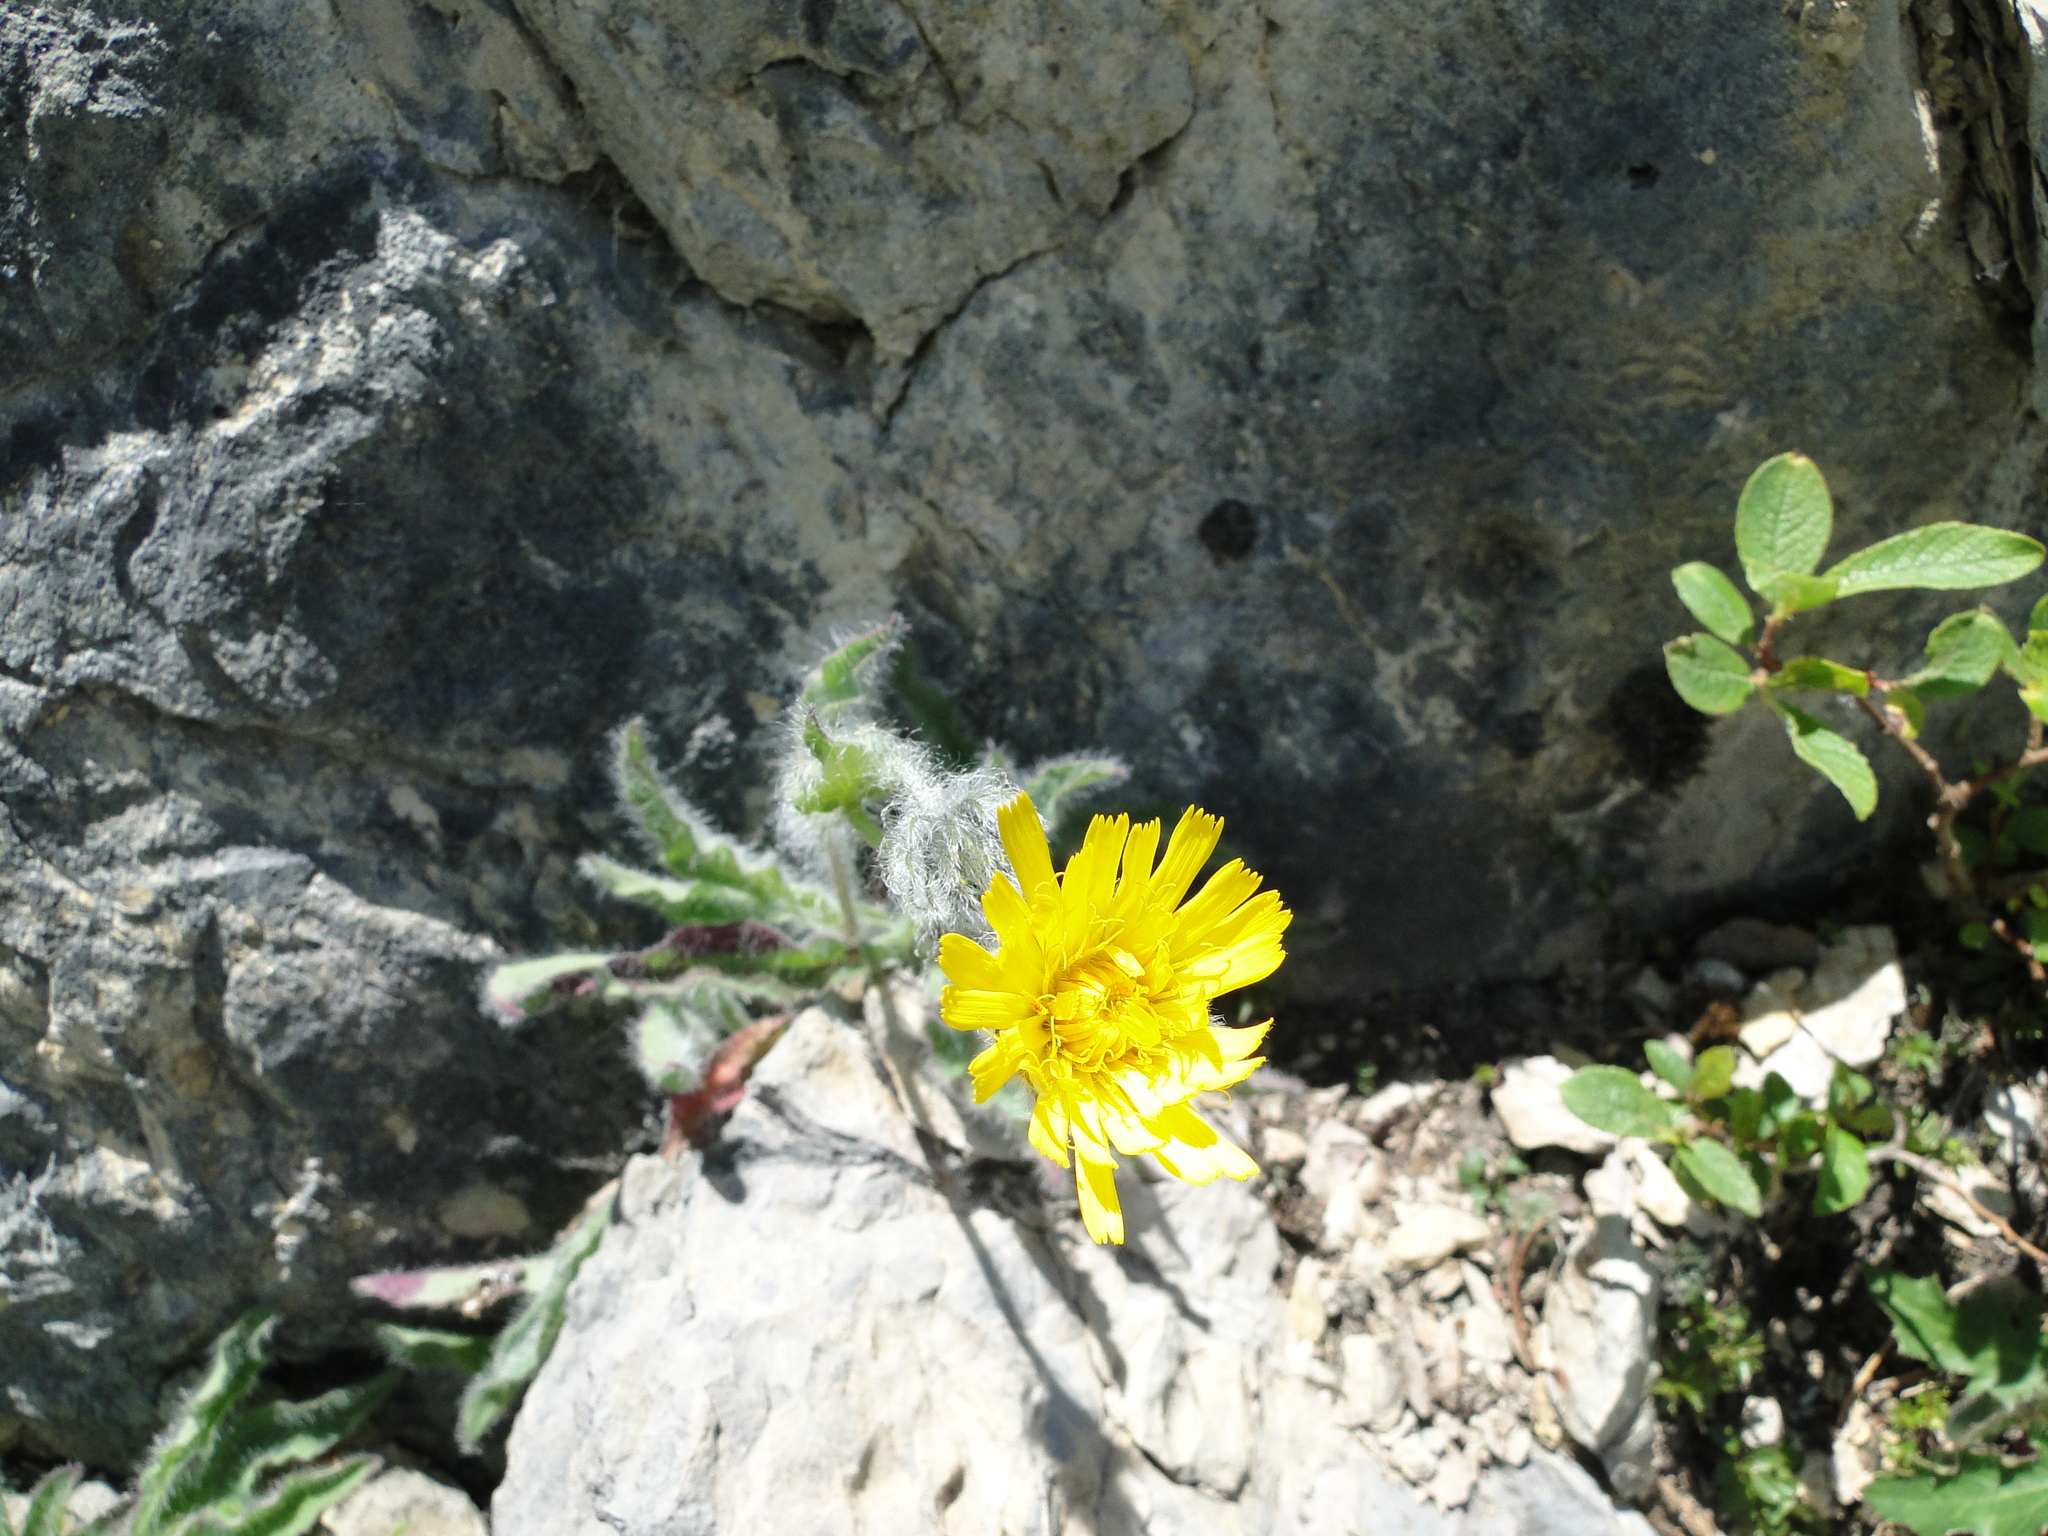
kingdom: Plantae
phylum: Tracheophyta
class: Magnoliopsida
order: Asterales
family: Asteraceae
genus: Hieracium
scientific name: Hieracium villosum
